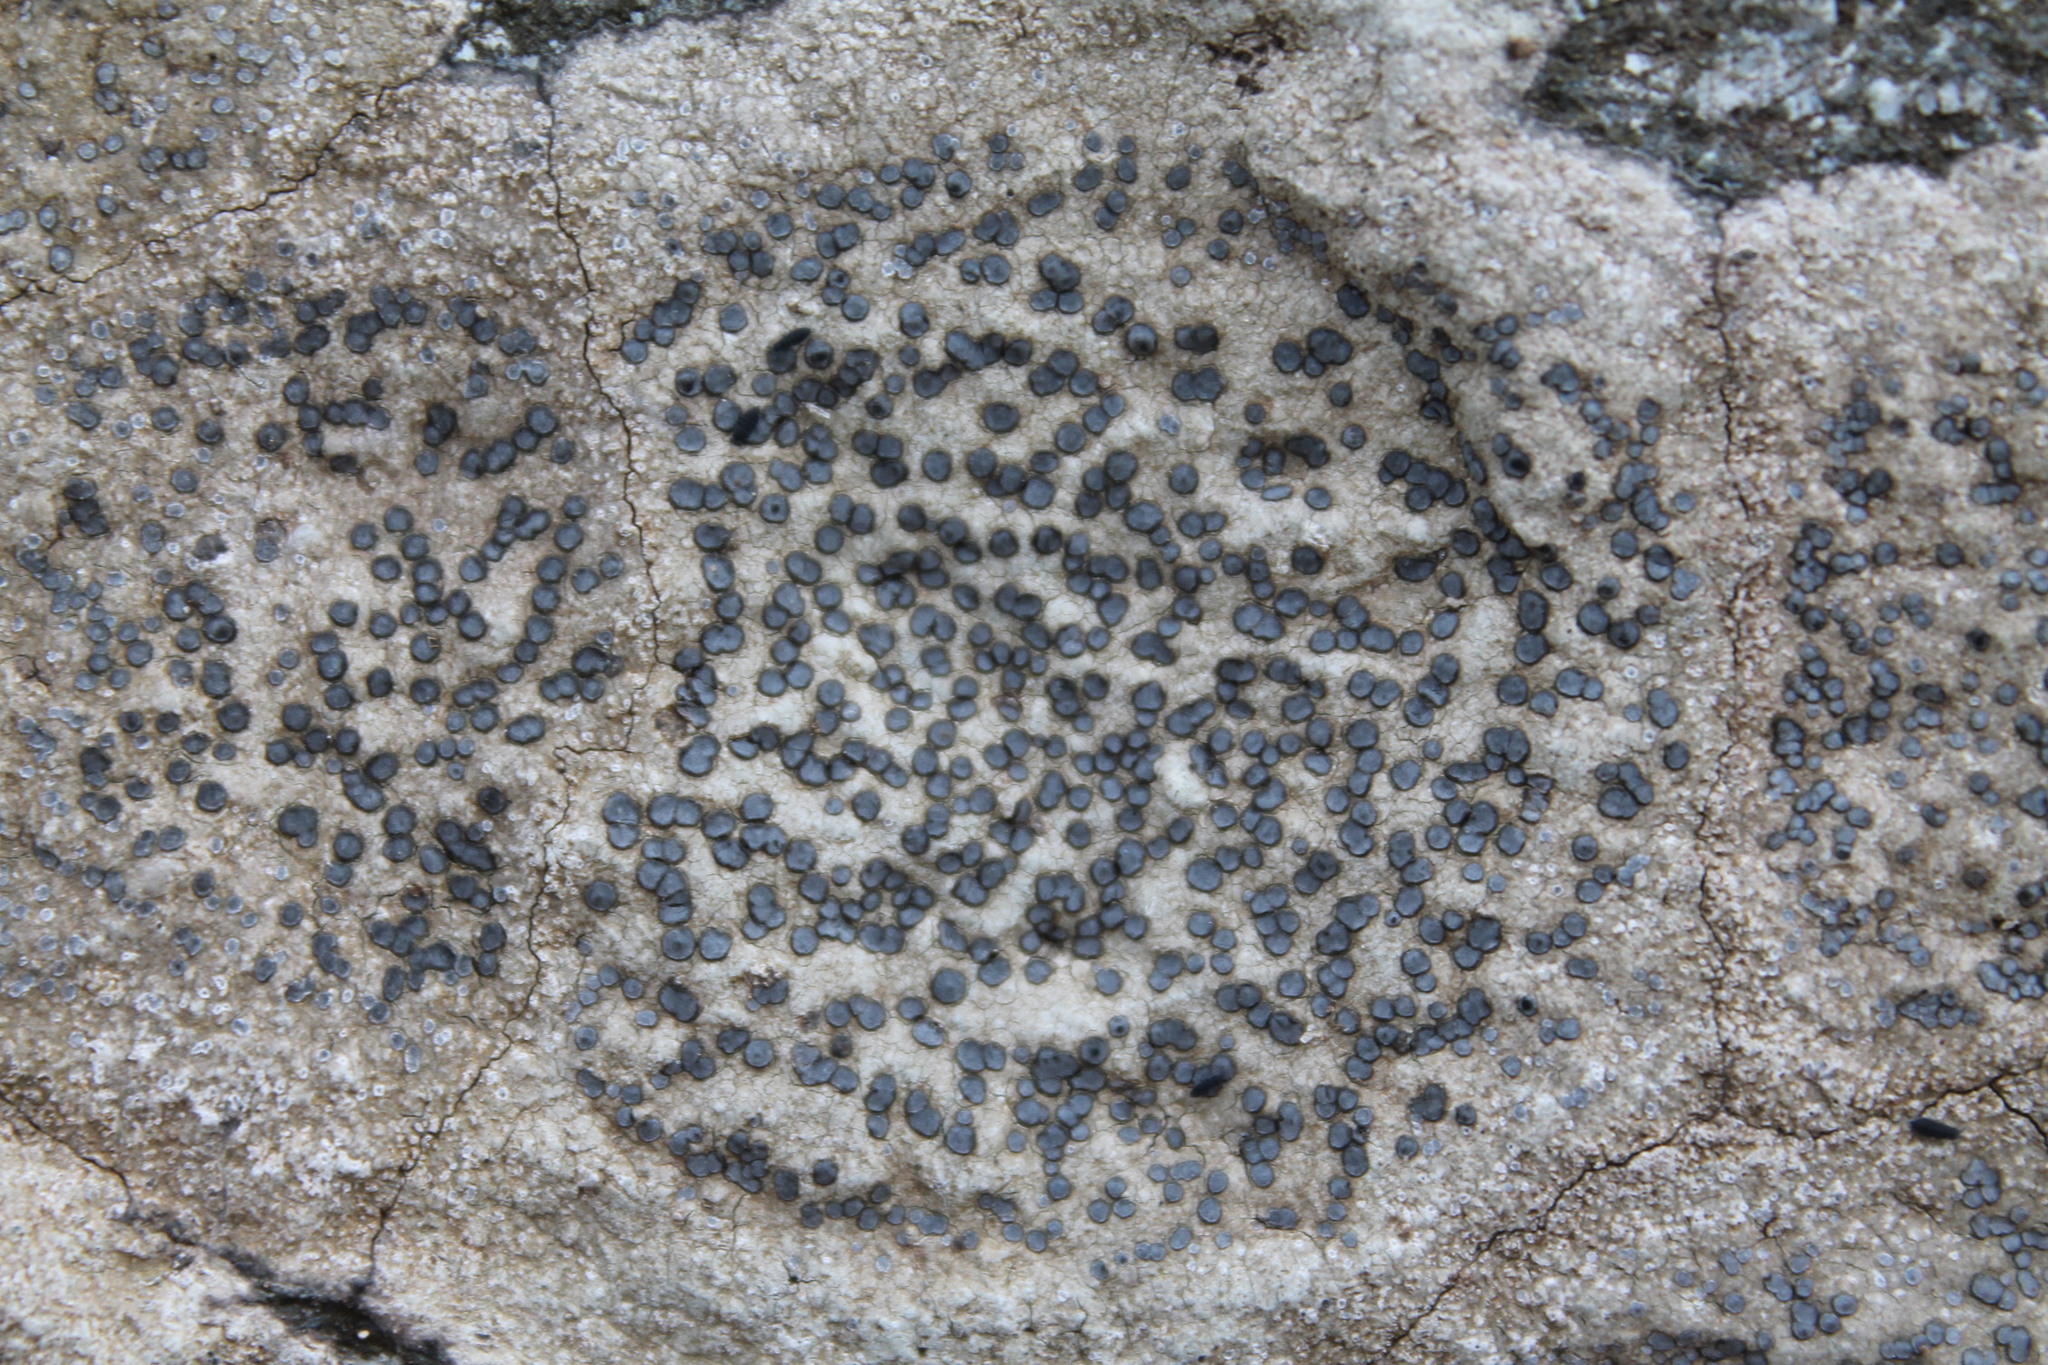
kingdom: Fungi
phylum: Ascomycota
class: Lecanoromycetes
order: Lecideales
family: Lecideaceae
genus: Porpidia
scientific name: Porpidia albocaerulescens
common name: Smokey-eyed boulder lichen
